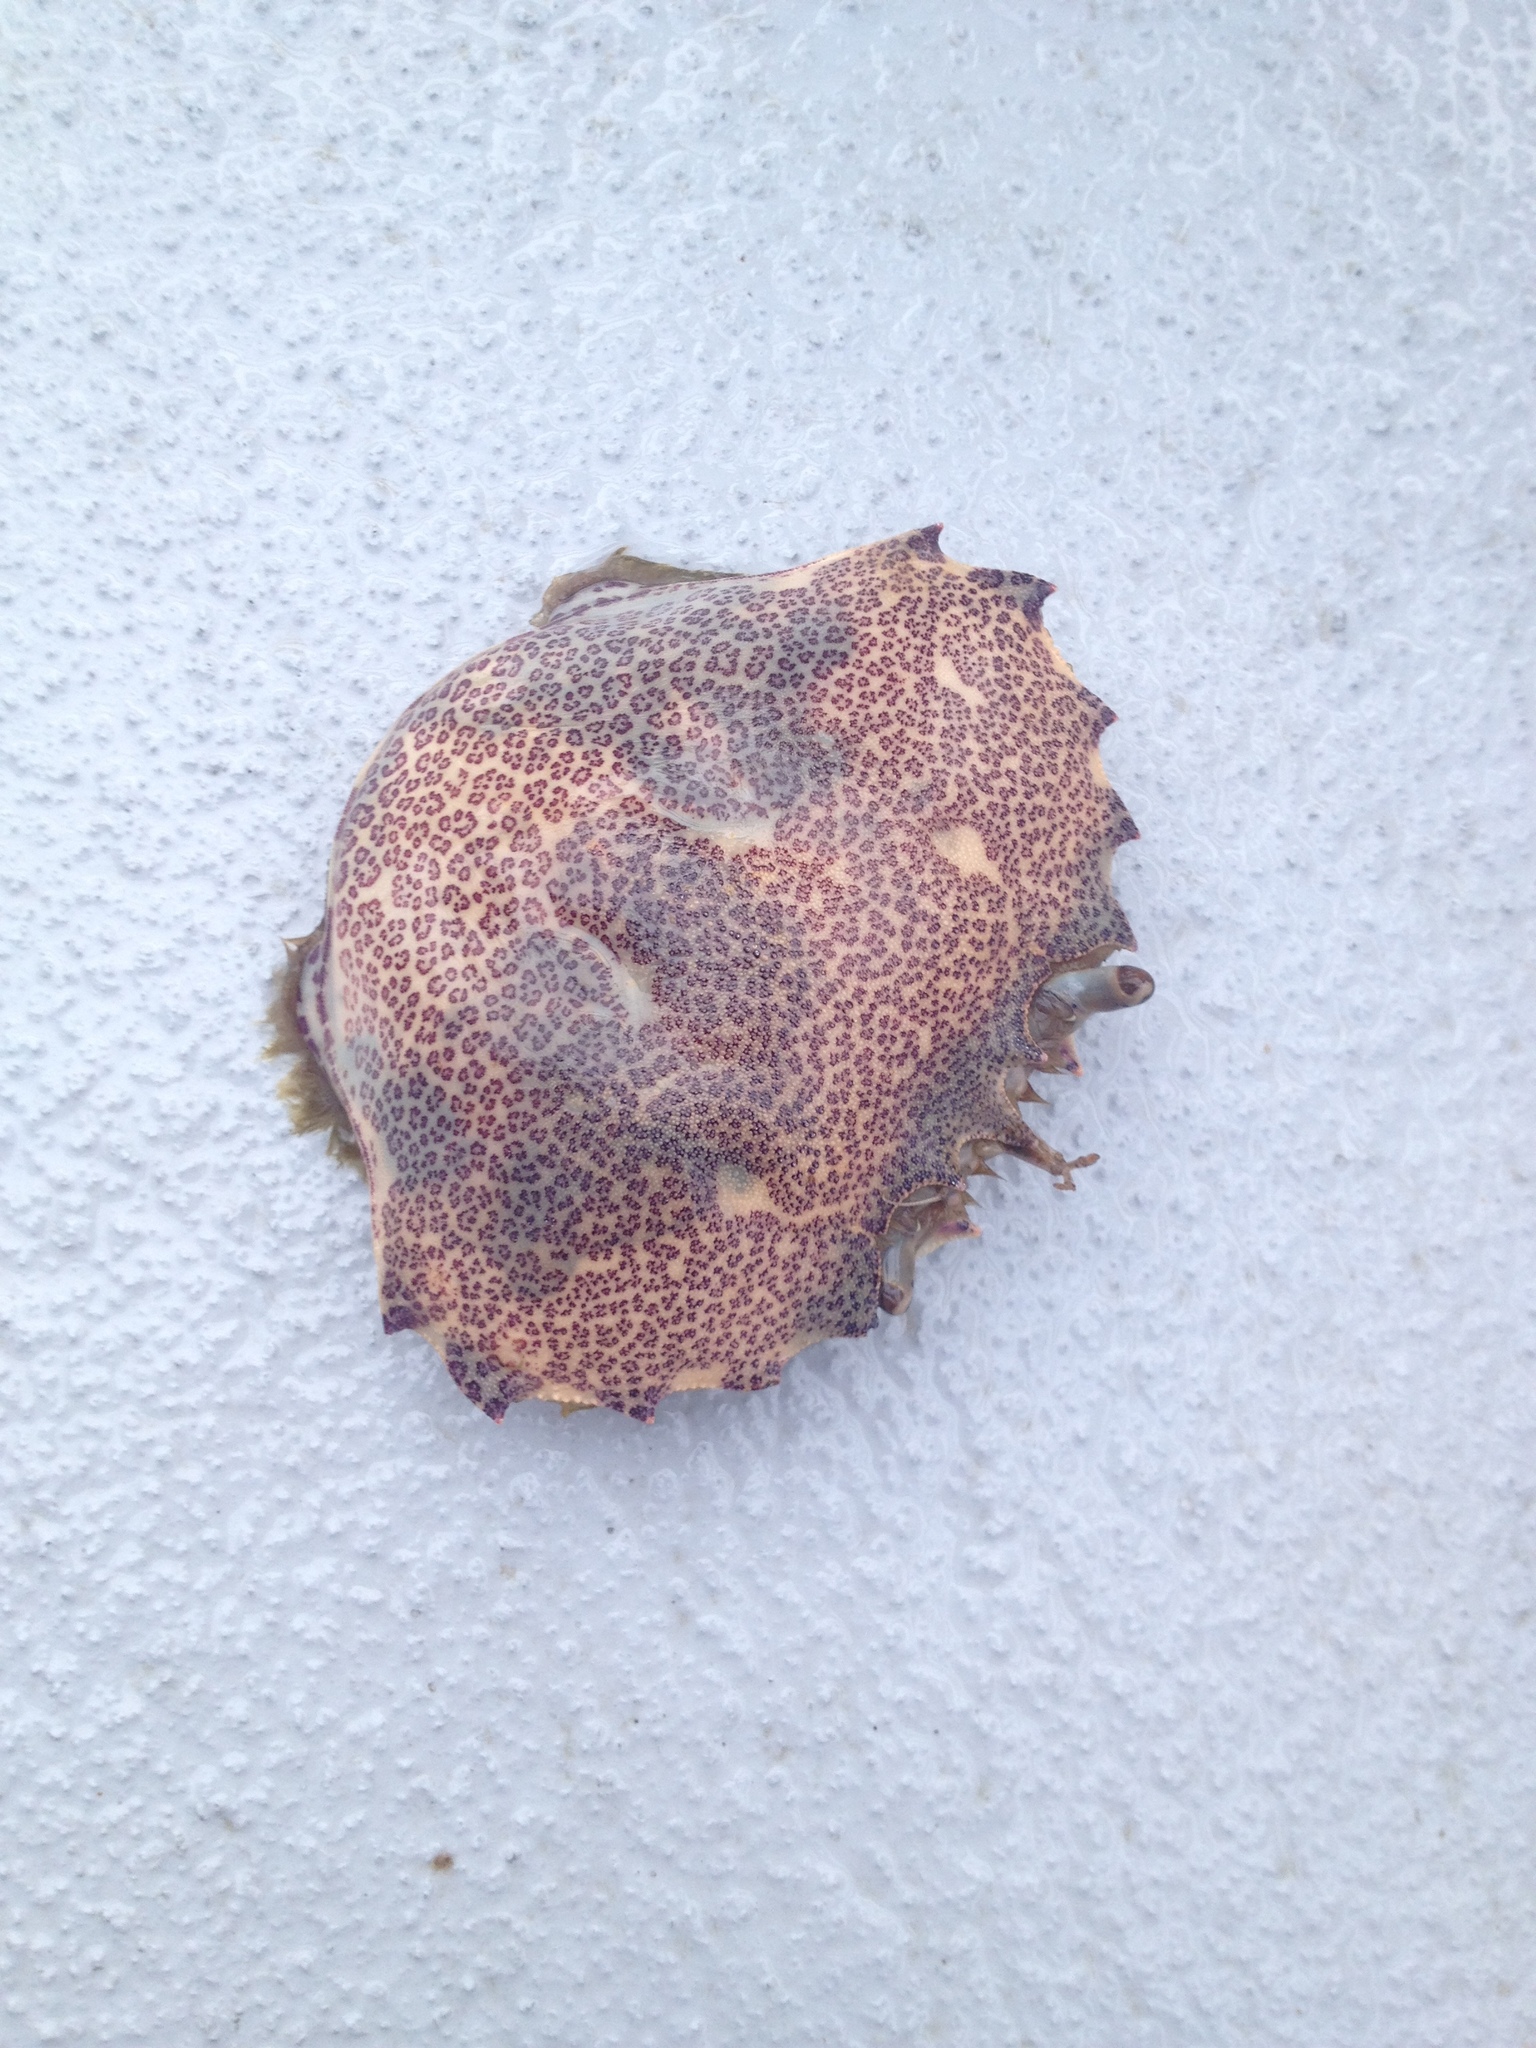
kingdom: Animalia
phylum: Arthropoda
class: Malacostraca
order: Decapoda
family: Ovalipidae
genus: Ovalipes
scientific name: Ovalipes ocellatus
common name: Lady crab
